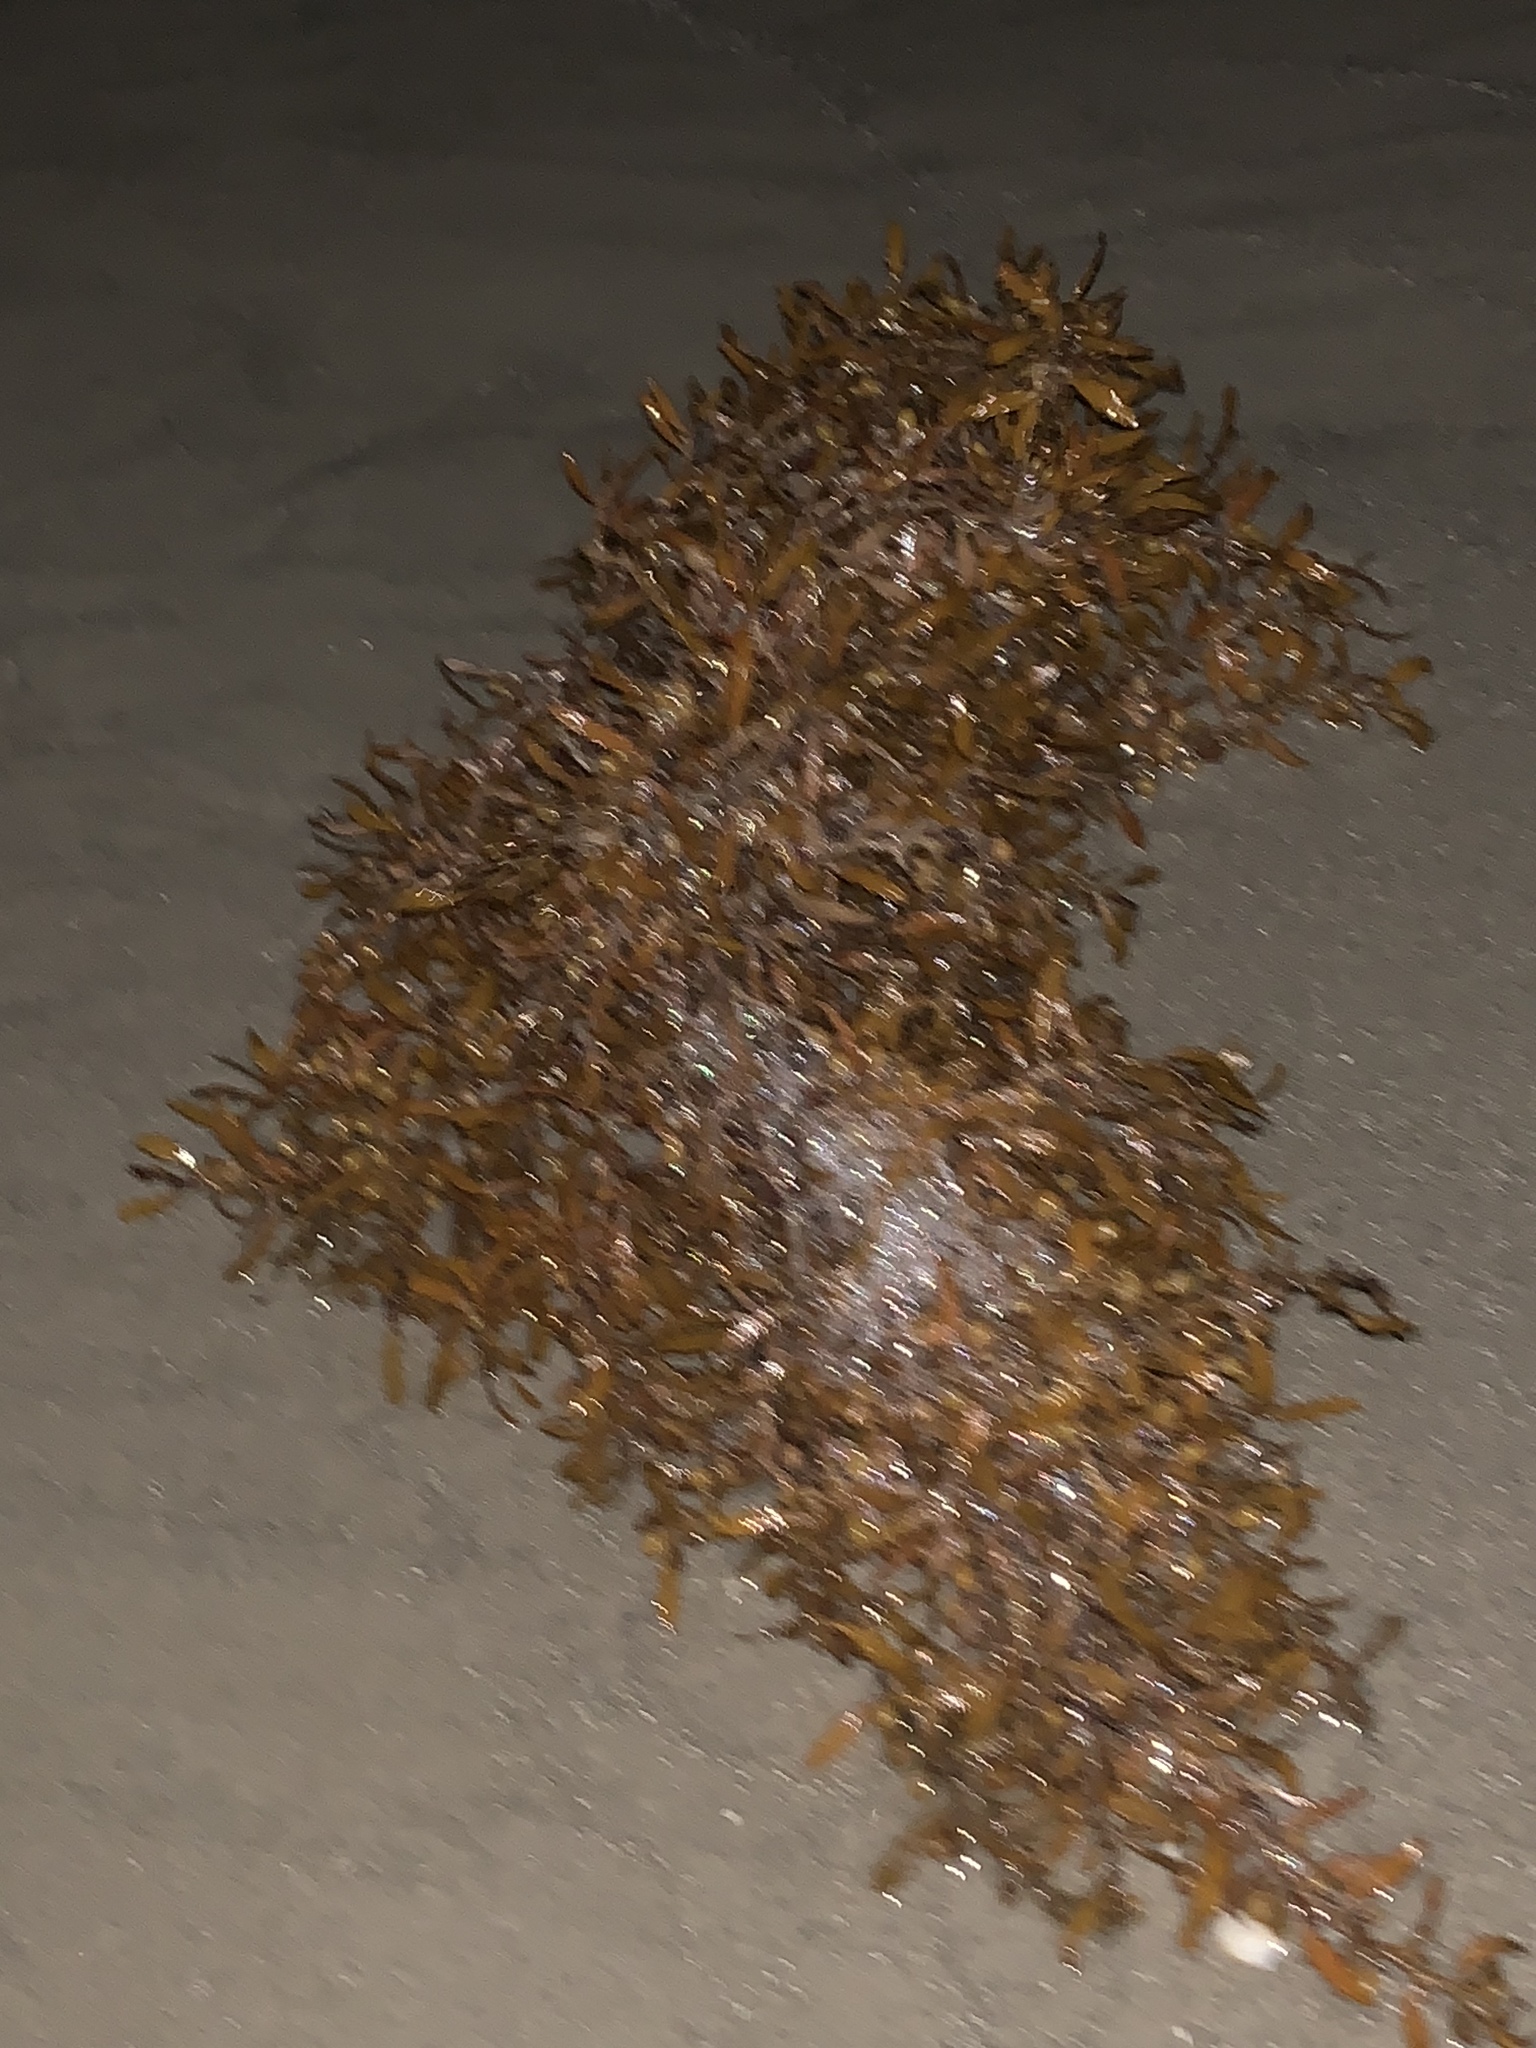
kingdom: Chromista
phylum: Ochrophyta
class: Phaeophyceae
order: Fucales
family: Sargassaceae
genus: Sargassum
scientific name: Sargassum fluitans
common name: Sargassum seaweed
